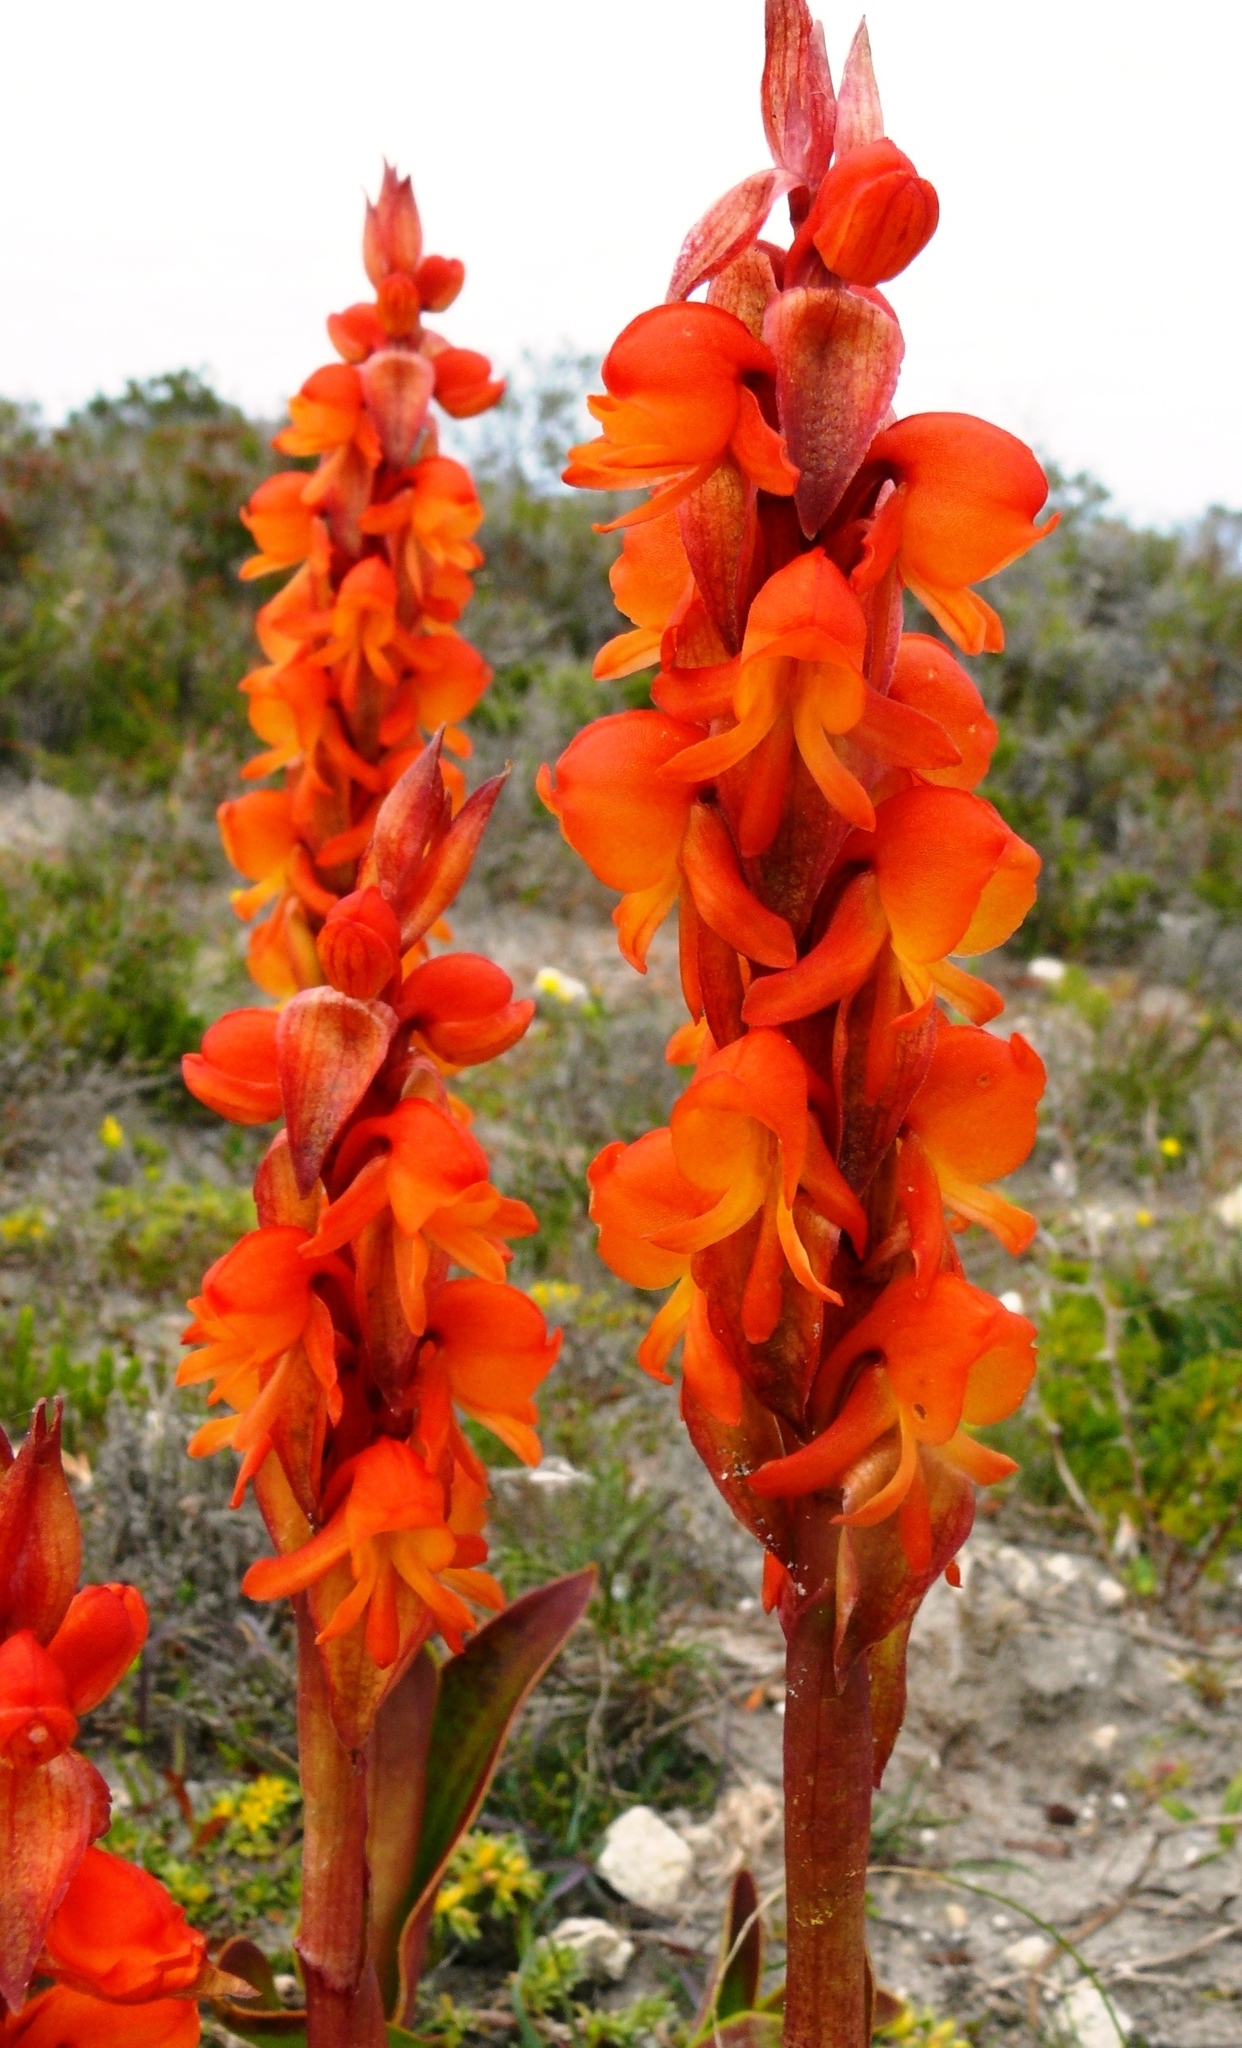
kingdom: Plantae
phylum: Tracheophyta
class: Liliopsida
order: Asparagales
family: Orchidaceae
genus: Satyrium
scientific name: Satyrium coriifolium
